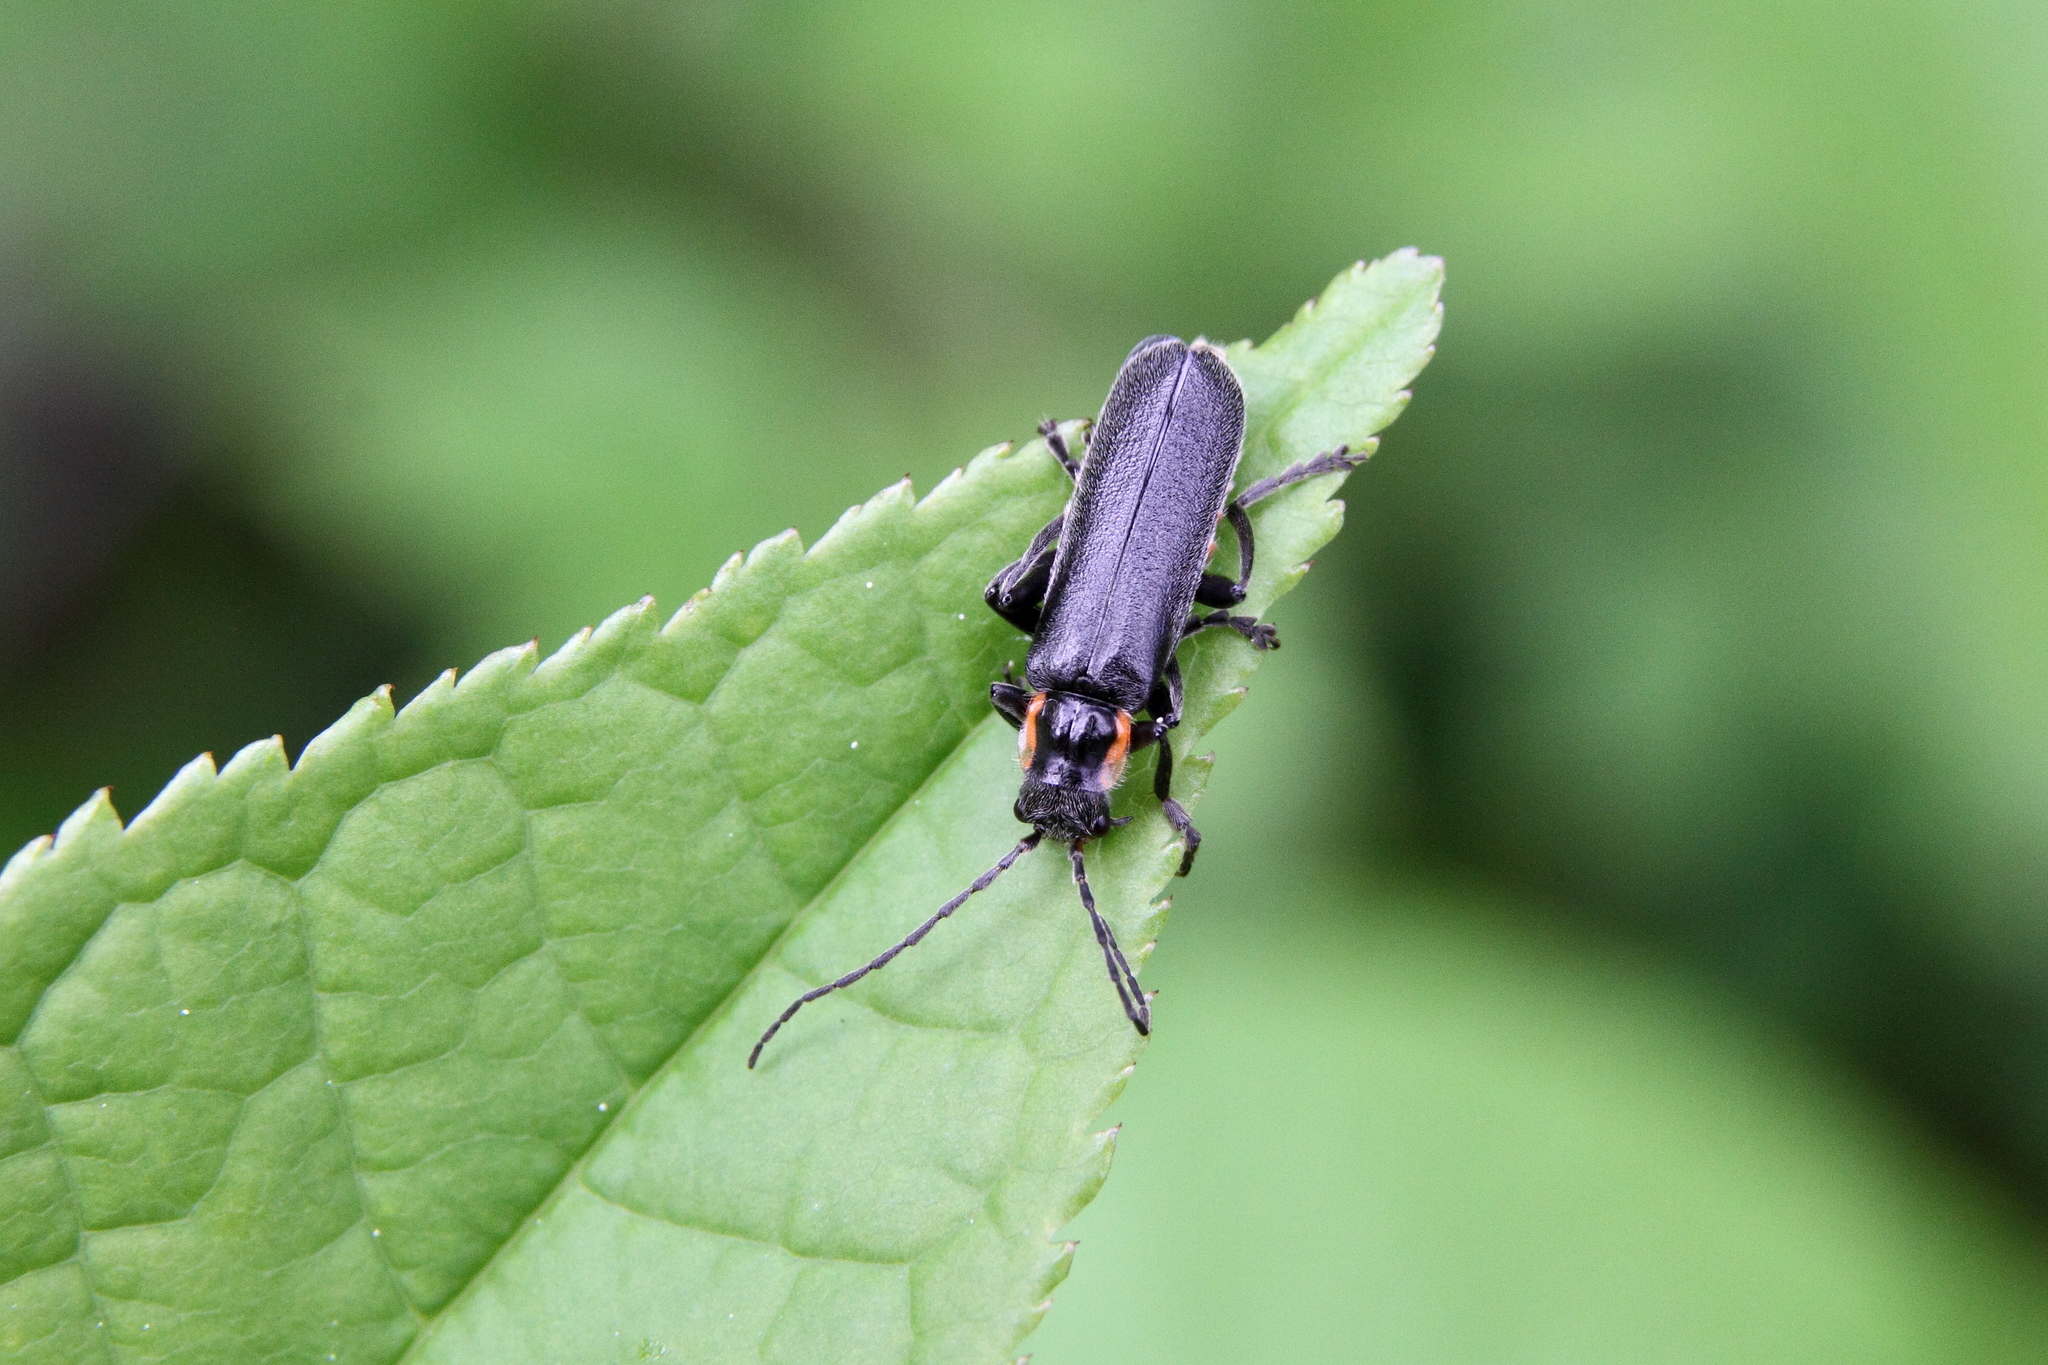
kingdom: Animalia
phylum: Arthropoda
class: Insecta
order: Coleoptera
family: Cantharidae
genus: Cantharis
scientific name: Cantharis obscura
